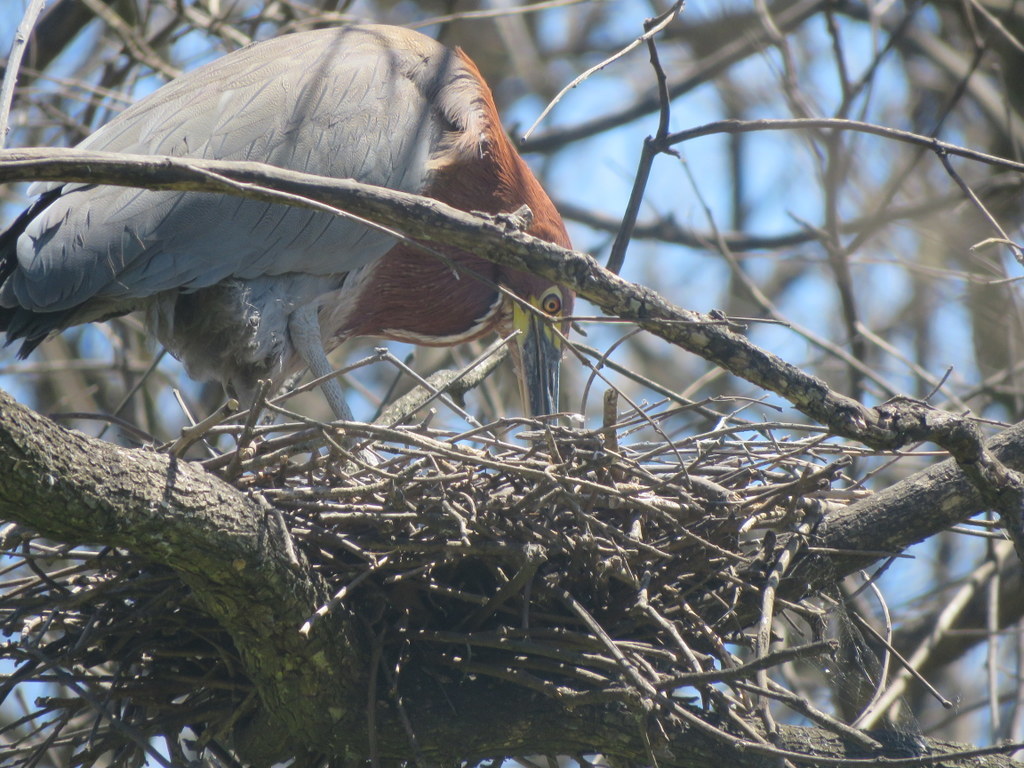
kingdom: Animalia
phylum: Chordata
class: Aves
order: Pelecaniformes
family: Ardeidae
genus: Tigrisoma
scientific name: Tigrisoma lineatum
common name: Rufescent tiger-heron
